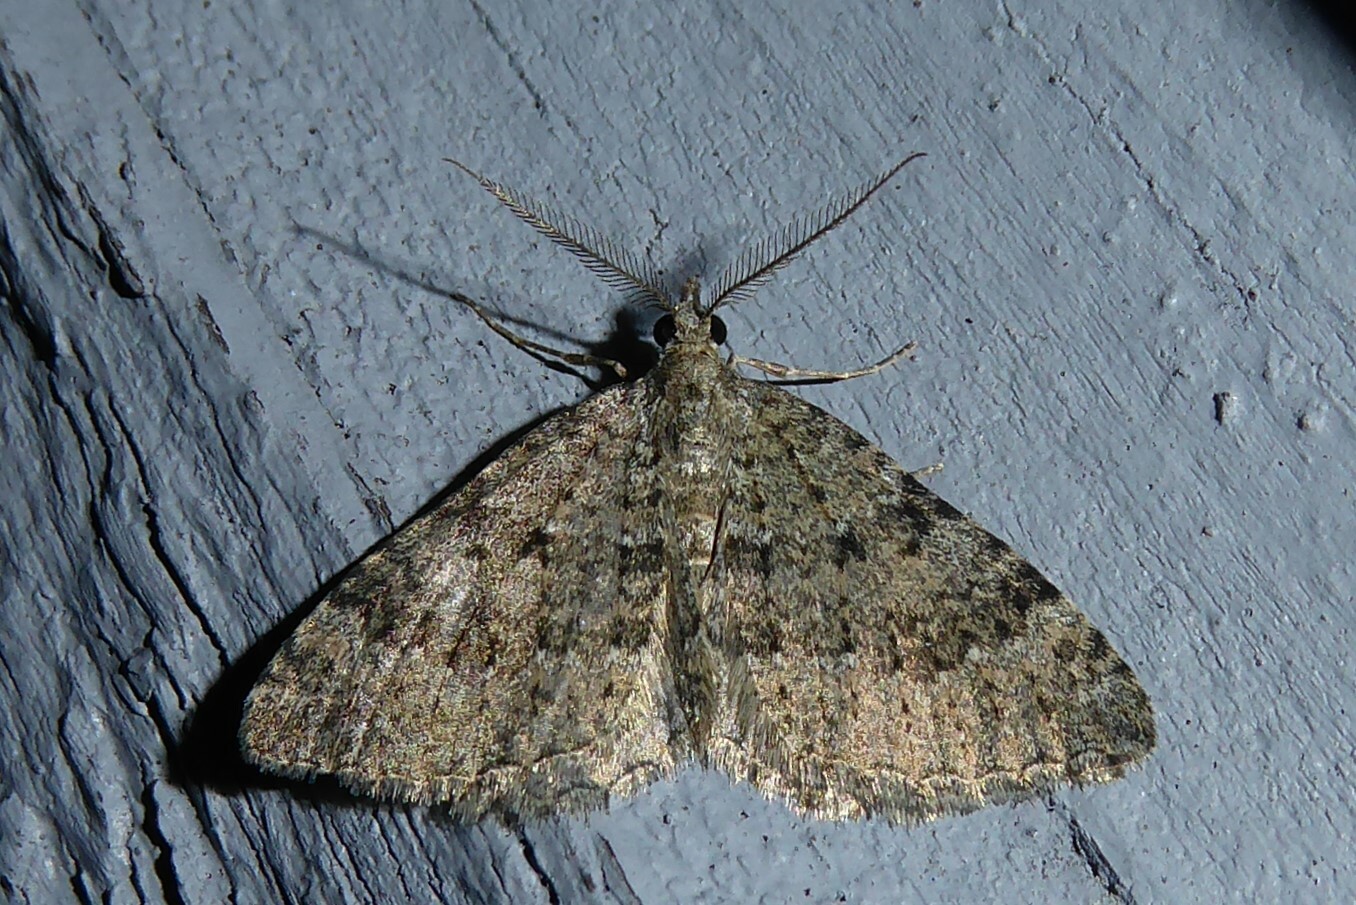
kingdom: Animalia
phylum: Arthropoda
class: Insecta
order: Lepidoptera
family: Geometridae
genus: Helastia
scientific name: Helastia corcularia
